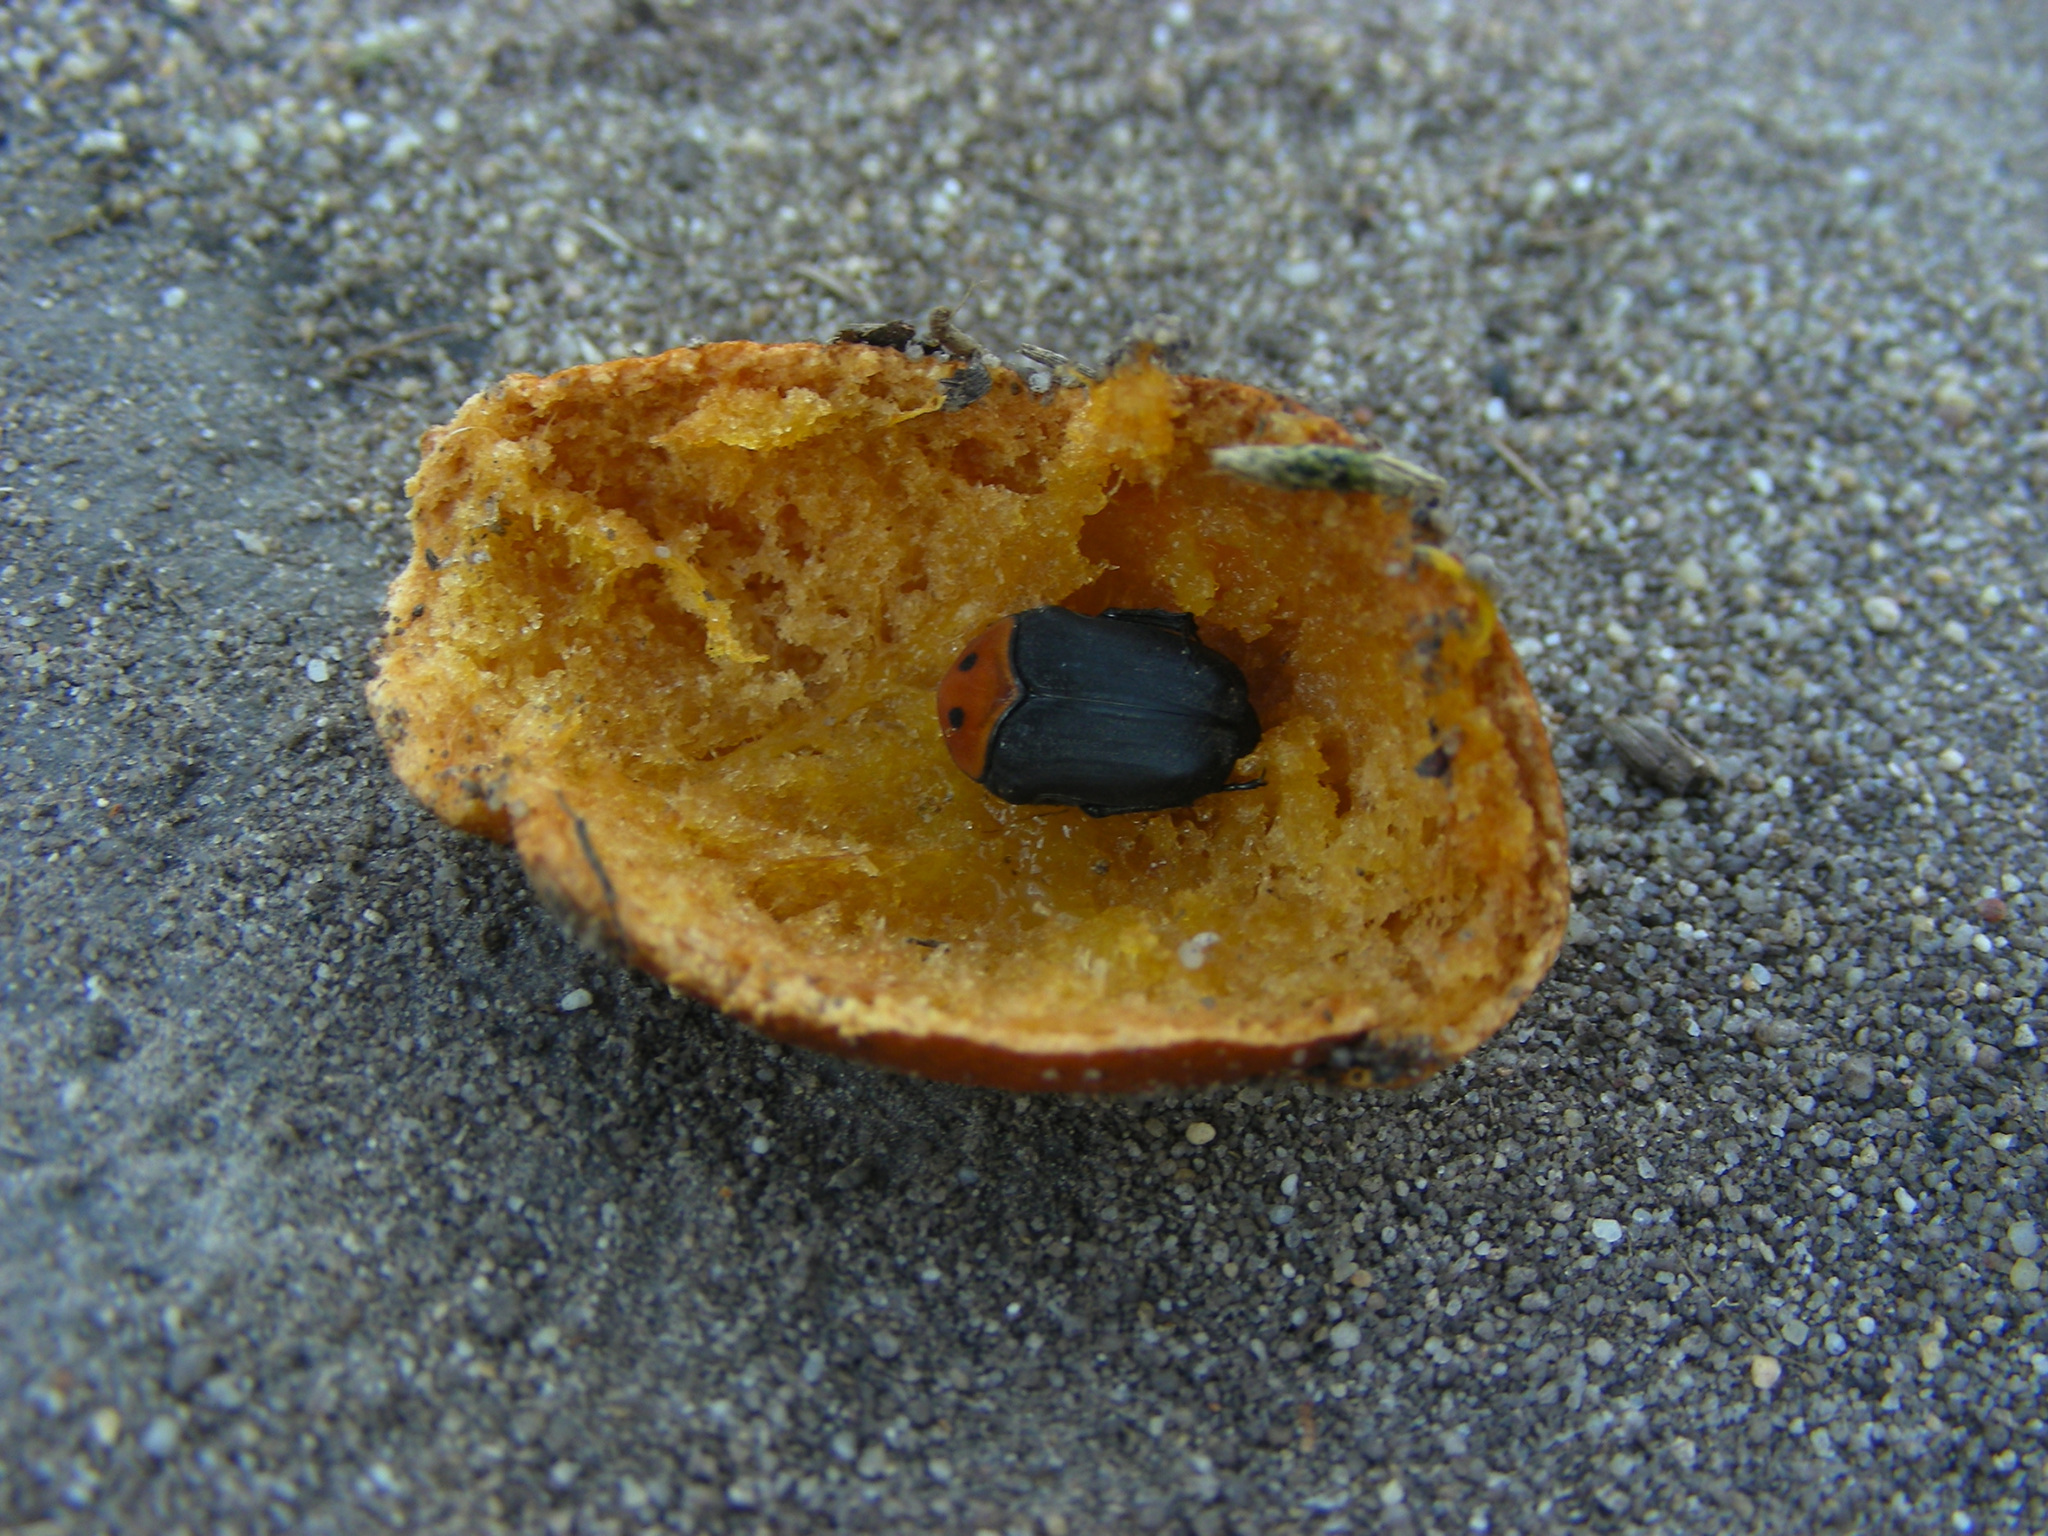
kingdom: Animalia
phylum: Arthropoda
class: Insecta
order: Coleoptera
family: Scarabaeidae
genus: Pseudoclinteria
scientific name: Pseudoclinteria infuscata
